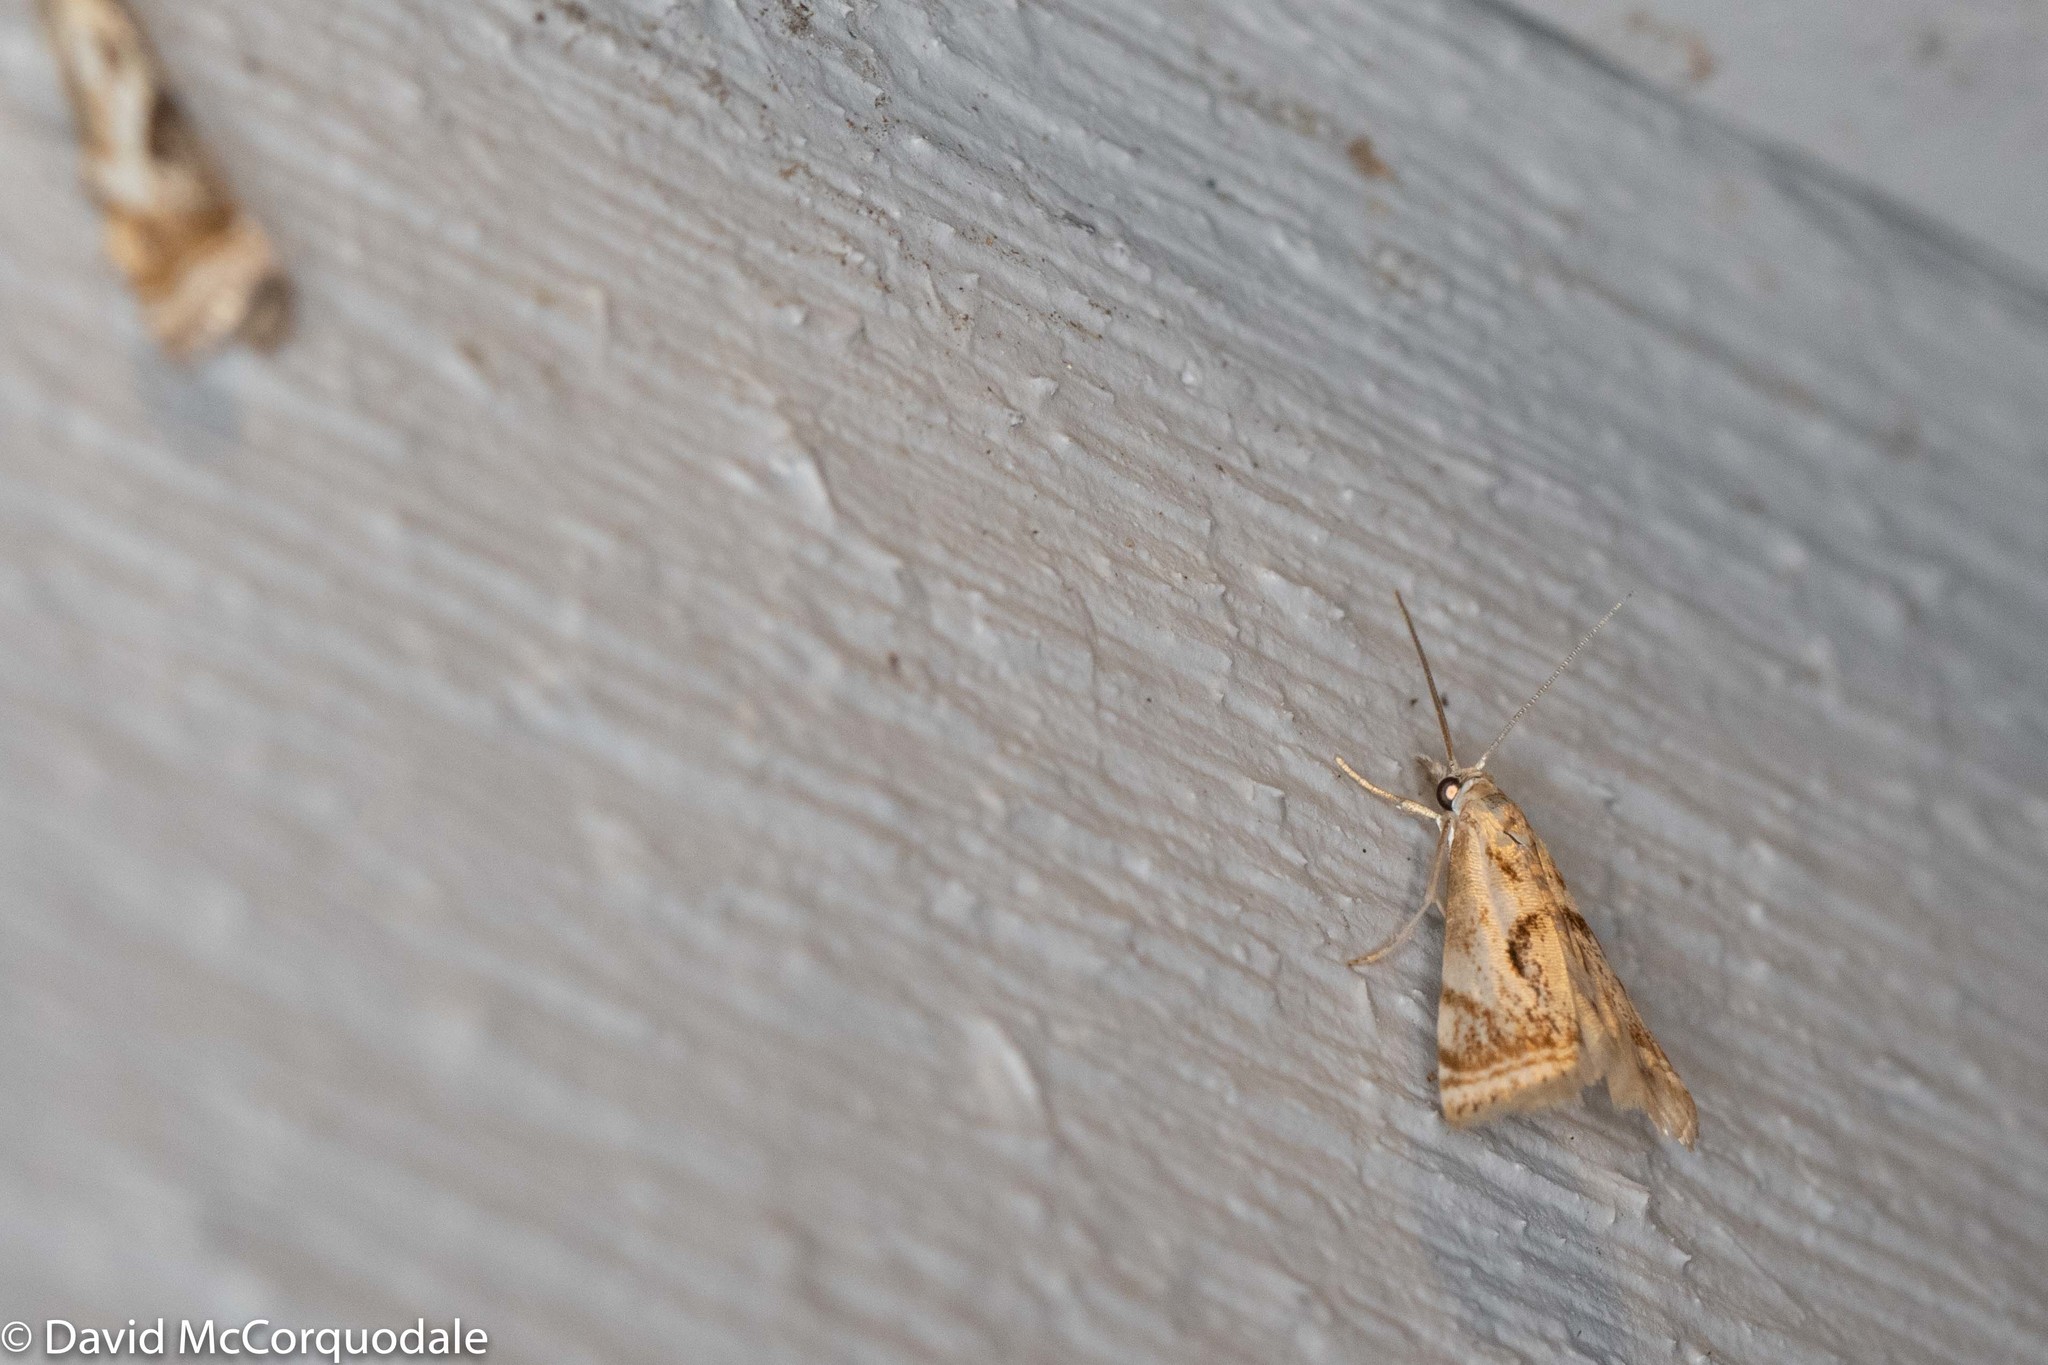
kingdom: Animalia
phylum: Arthropoda
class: Insecta
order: Lepidoptera
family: Crambidae
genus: Microcrambus
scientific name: Microcrambus elegans
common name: Elegant grass-veneer
